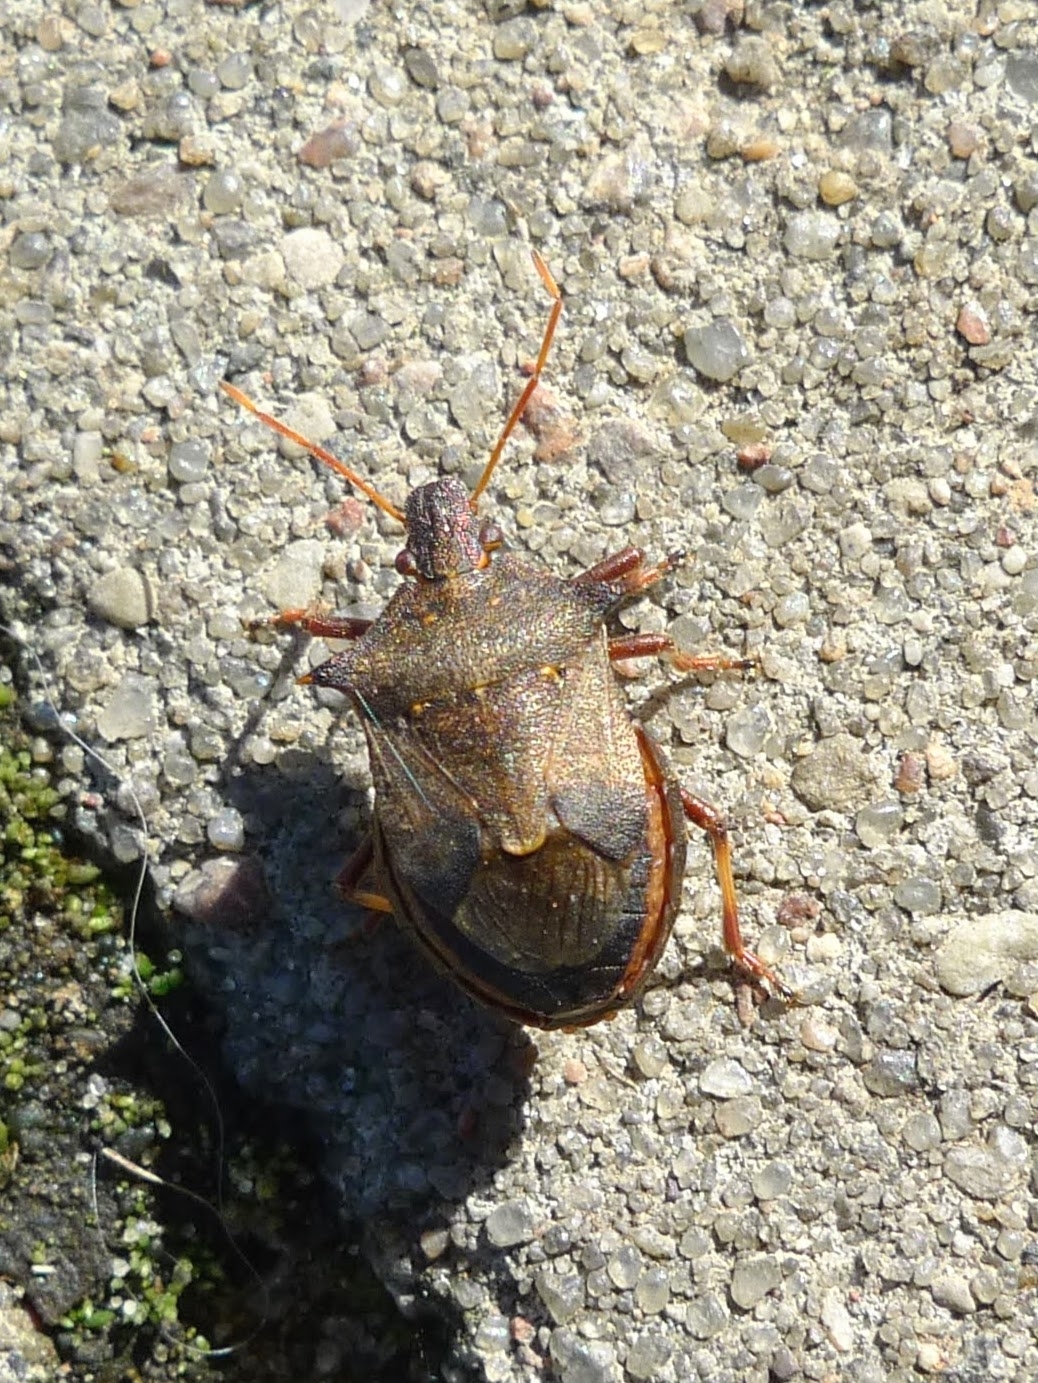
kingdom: Animalia
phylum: Arthropoda
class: Insecta
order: Hemiptera
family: Pentatomidae
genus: Picromerus
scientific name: Picromerus bidens
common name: Spiked shieldbug
